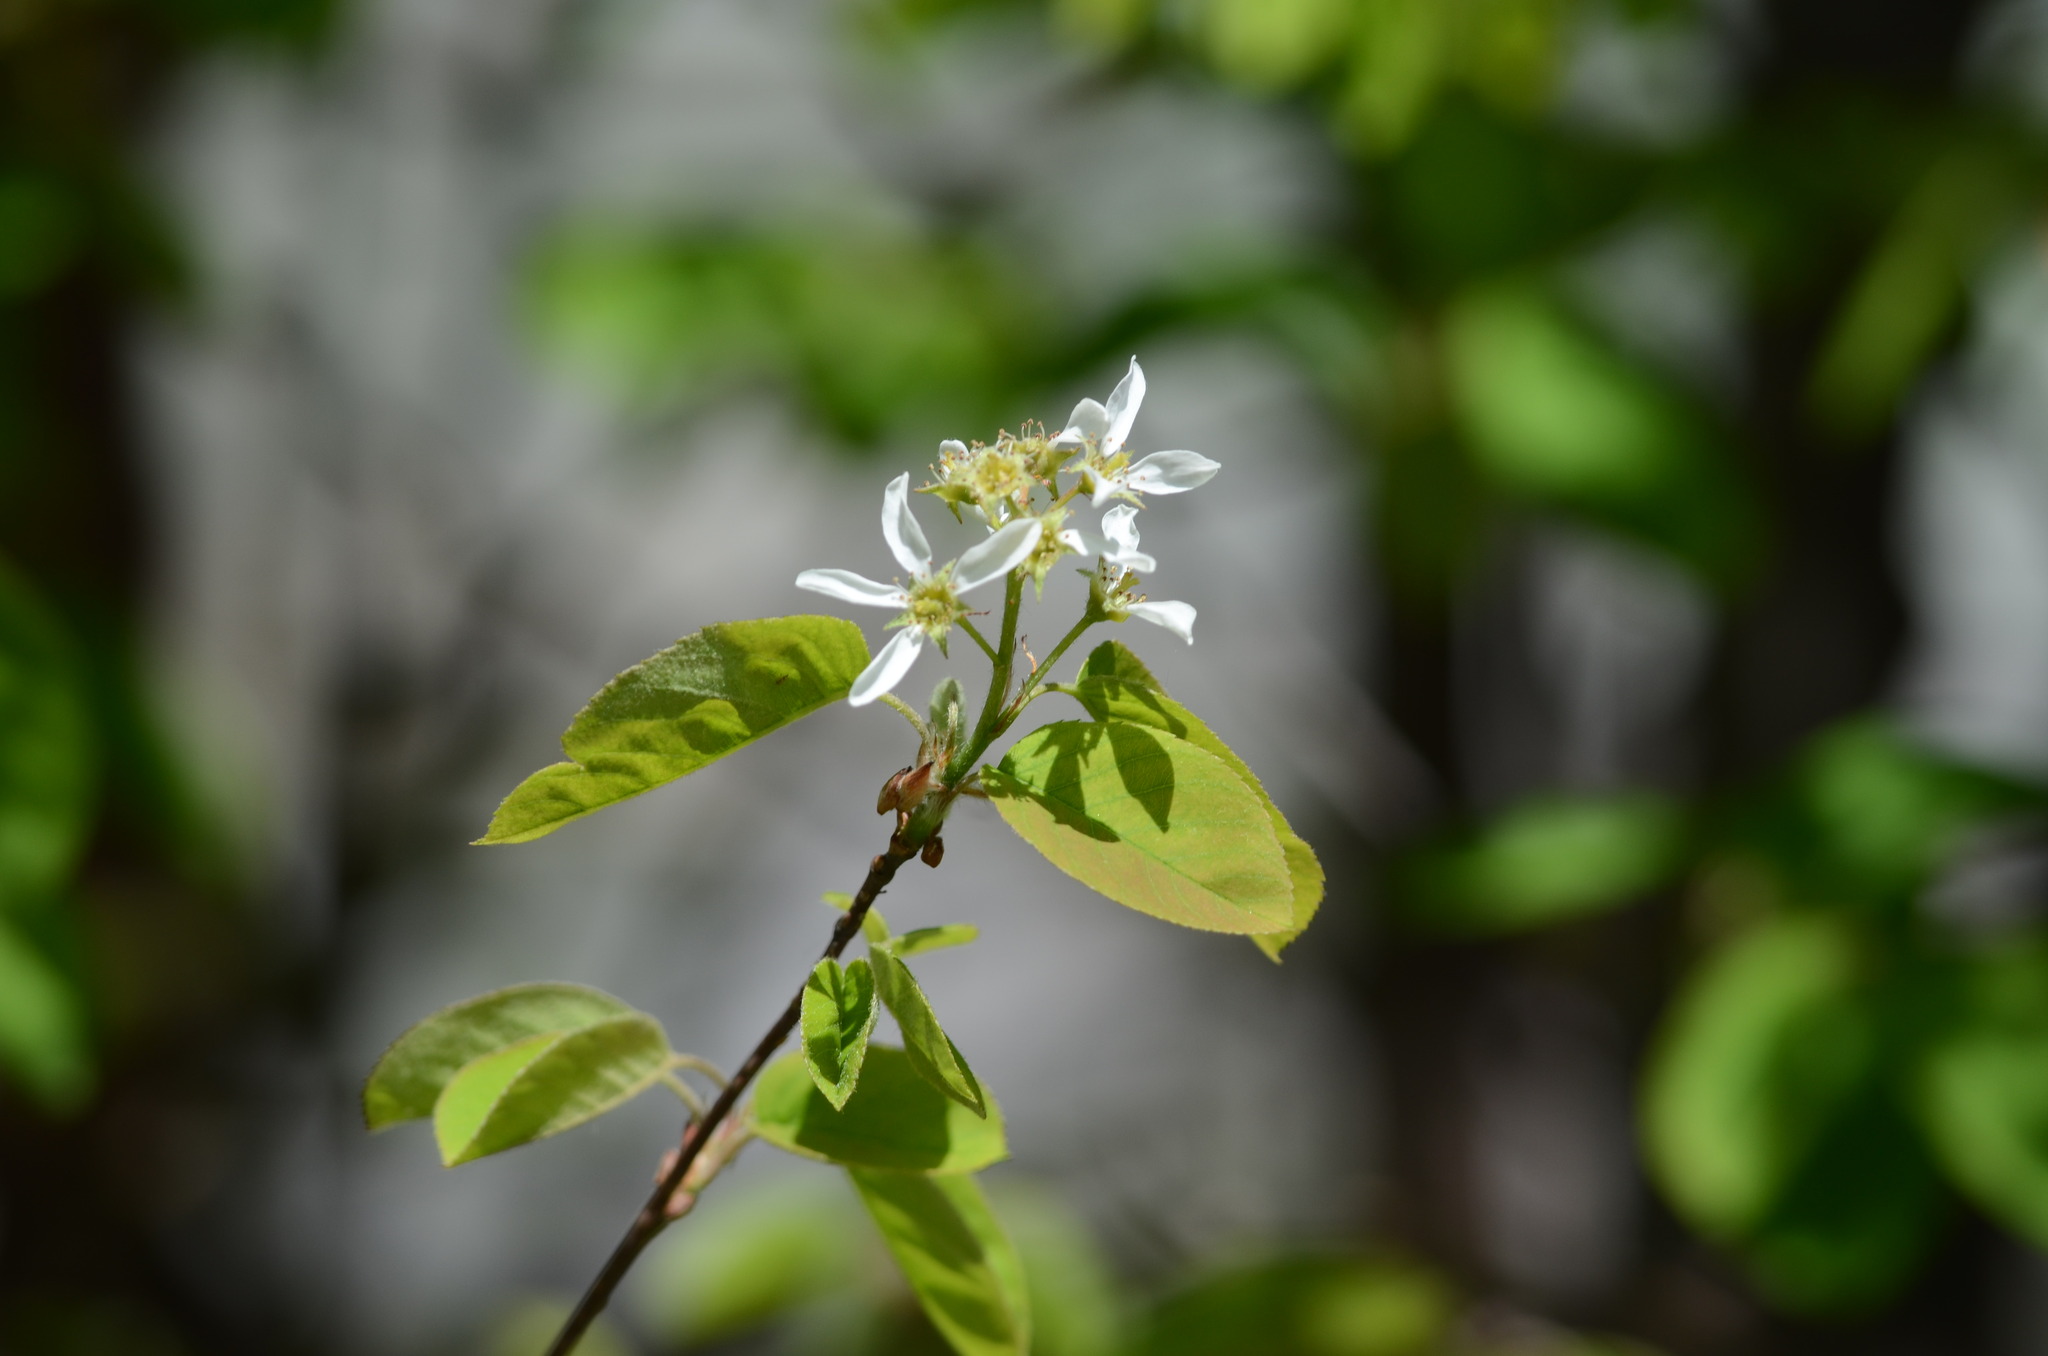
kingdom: Plantae
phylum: Tracheophyta
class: Magnoliopsida
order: Rosales
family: Rosaceae
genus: Amelanchier
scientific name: Amelanchier ovalis
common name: Serviceberry
